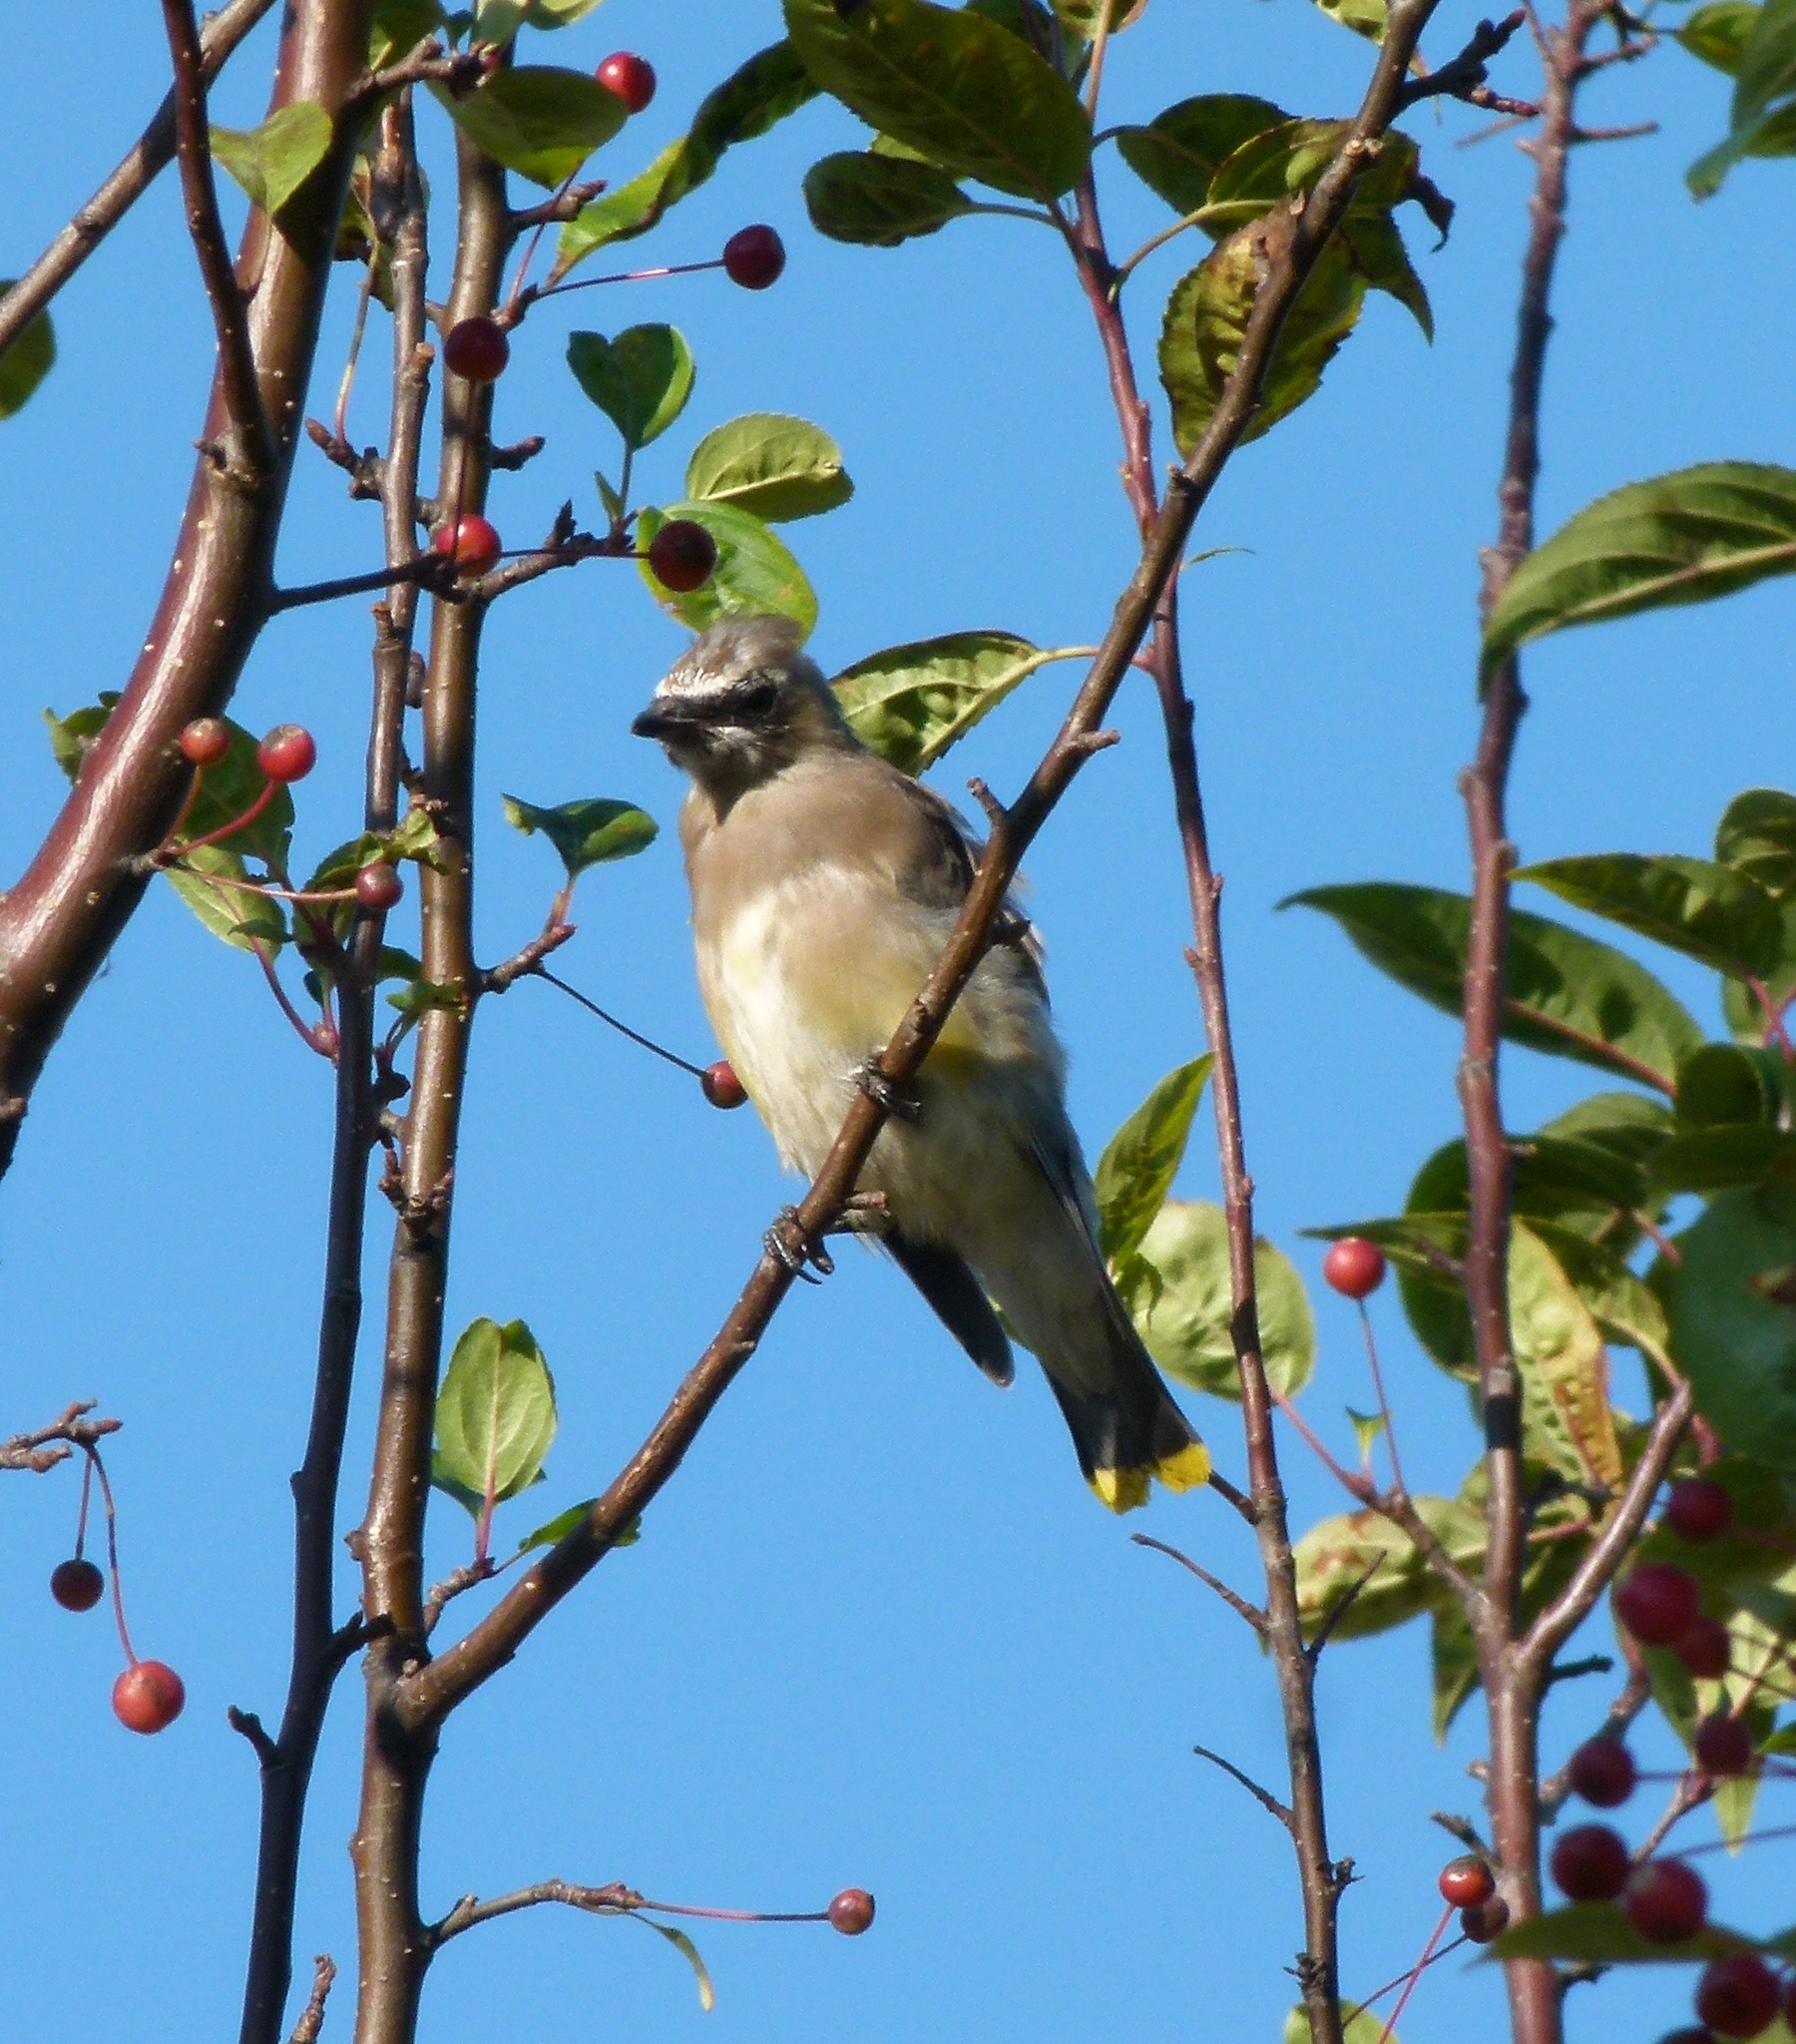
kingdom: Animalia
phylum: Chordata
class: Aves
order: Passeriformes
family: Bombycillidae
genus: Bombycilla
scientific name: Bombycilla cedrorum
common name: Cedar waxwing
